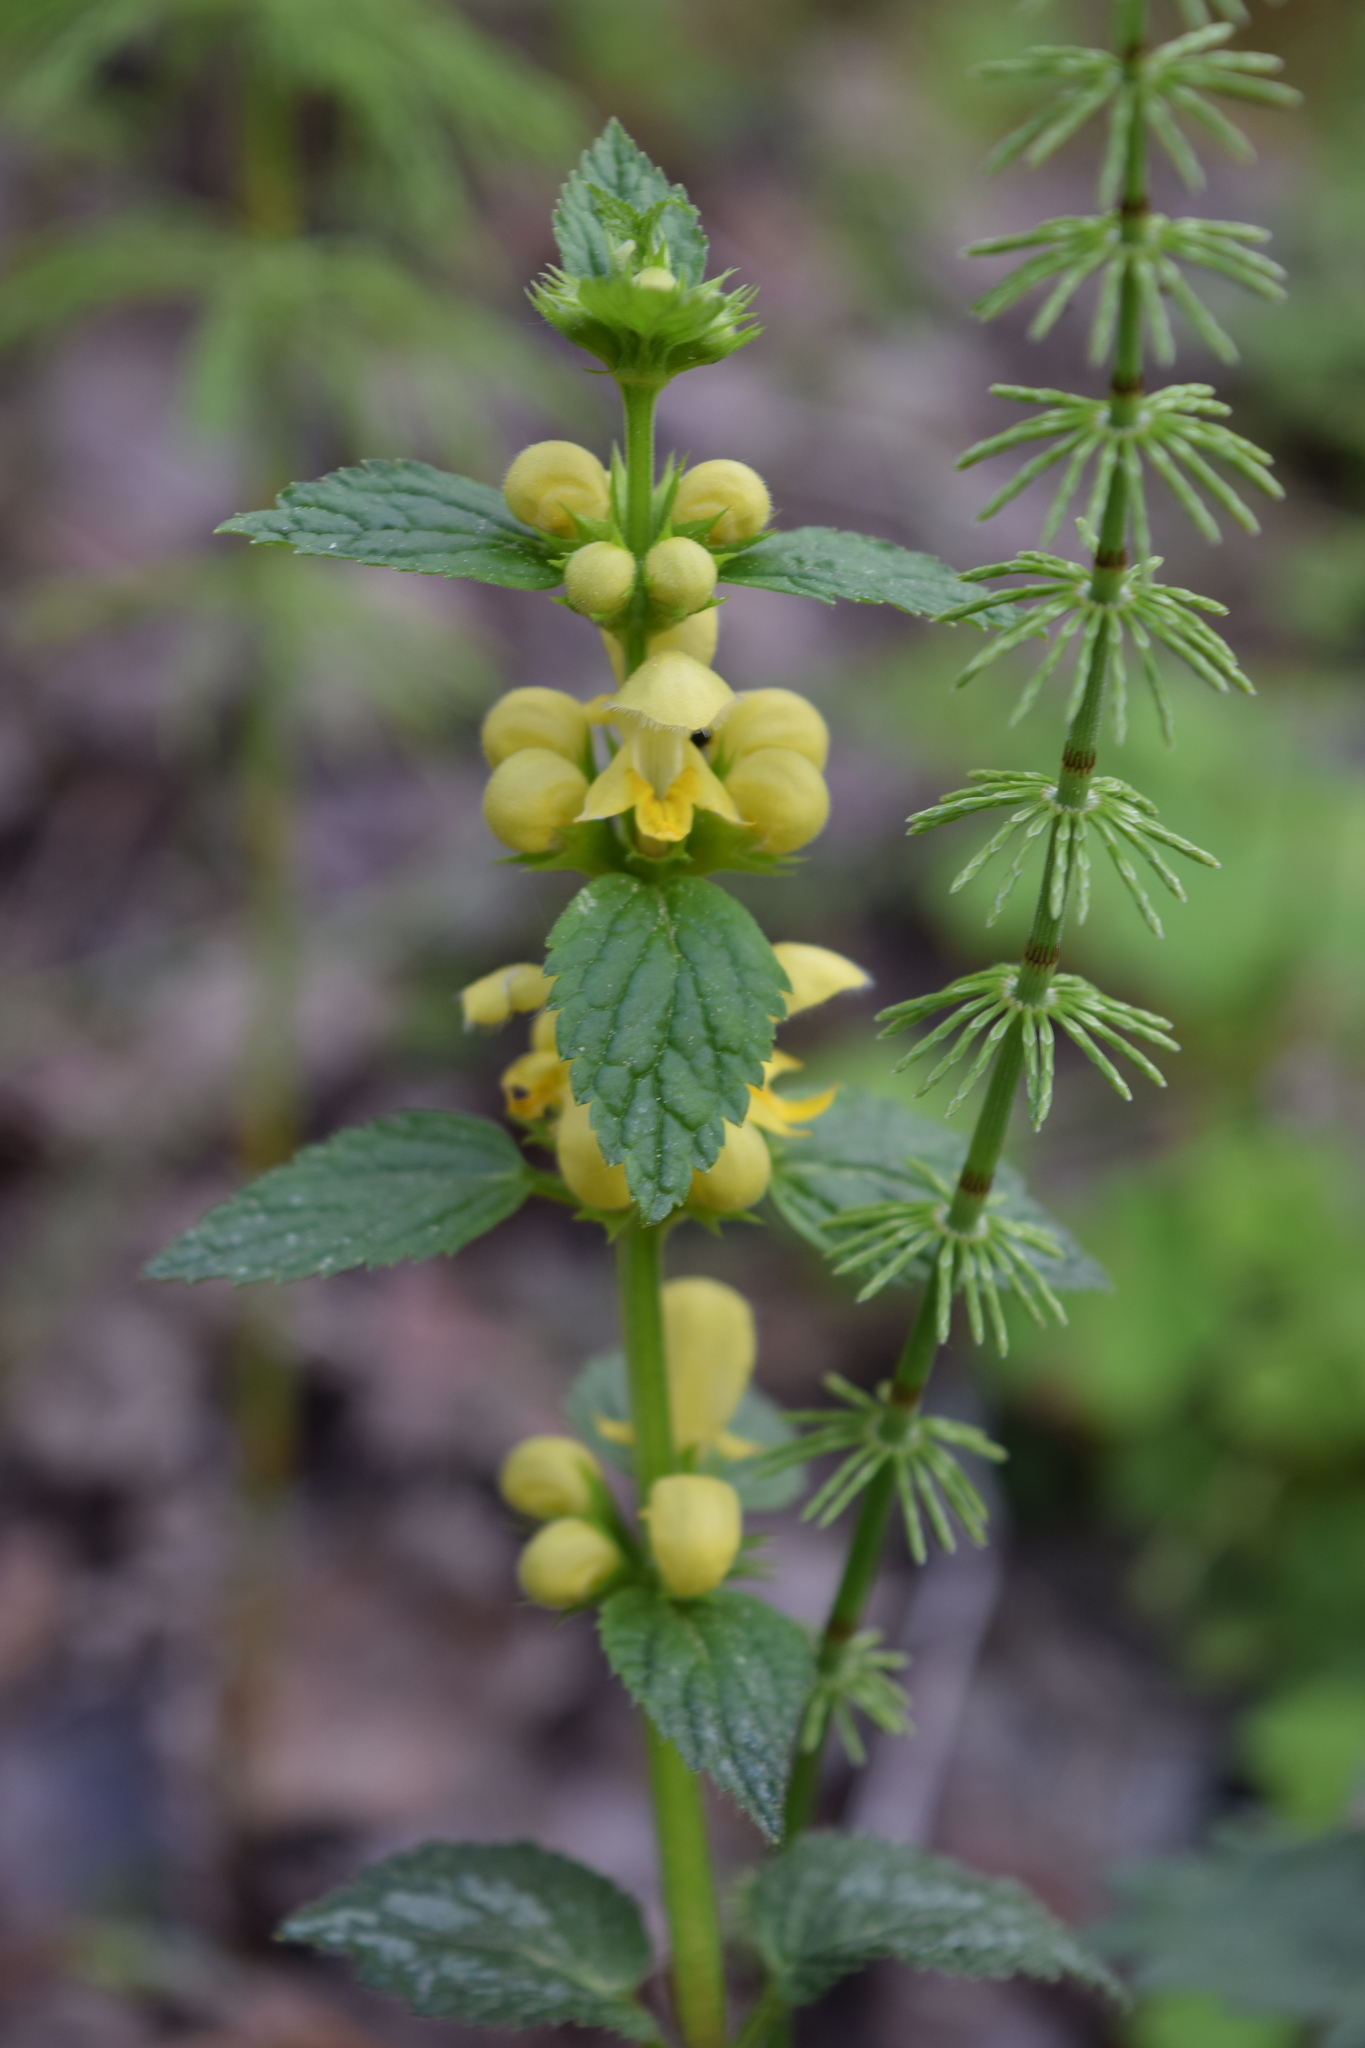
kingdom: Plantae
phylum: Tracheophyta
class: Magnoliopsida
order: Lamiales
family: Lamiaceae
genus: Lamium
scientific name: Lamium galeobdolon
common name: Yellow archangel
